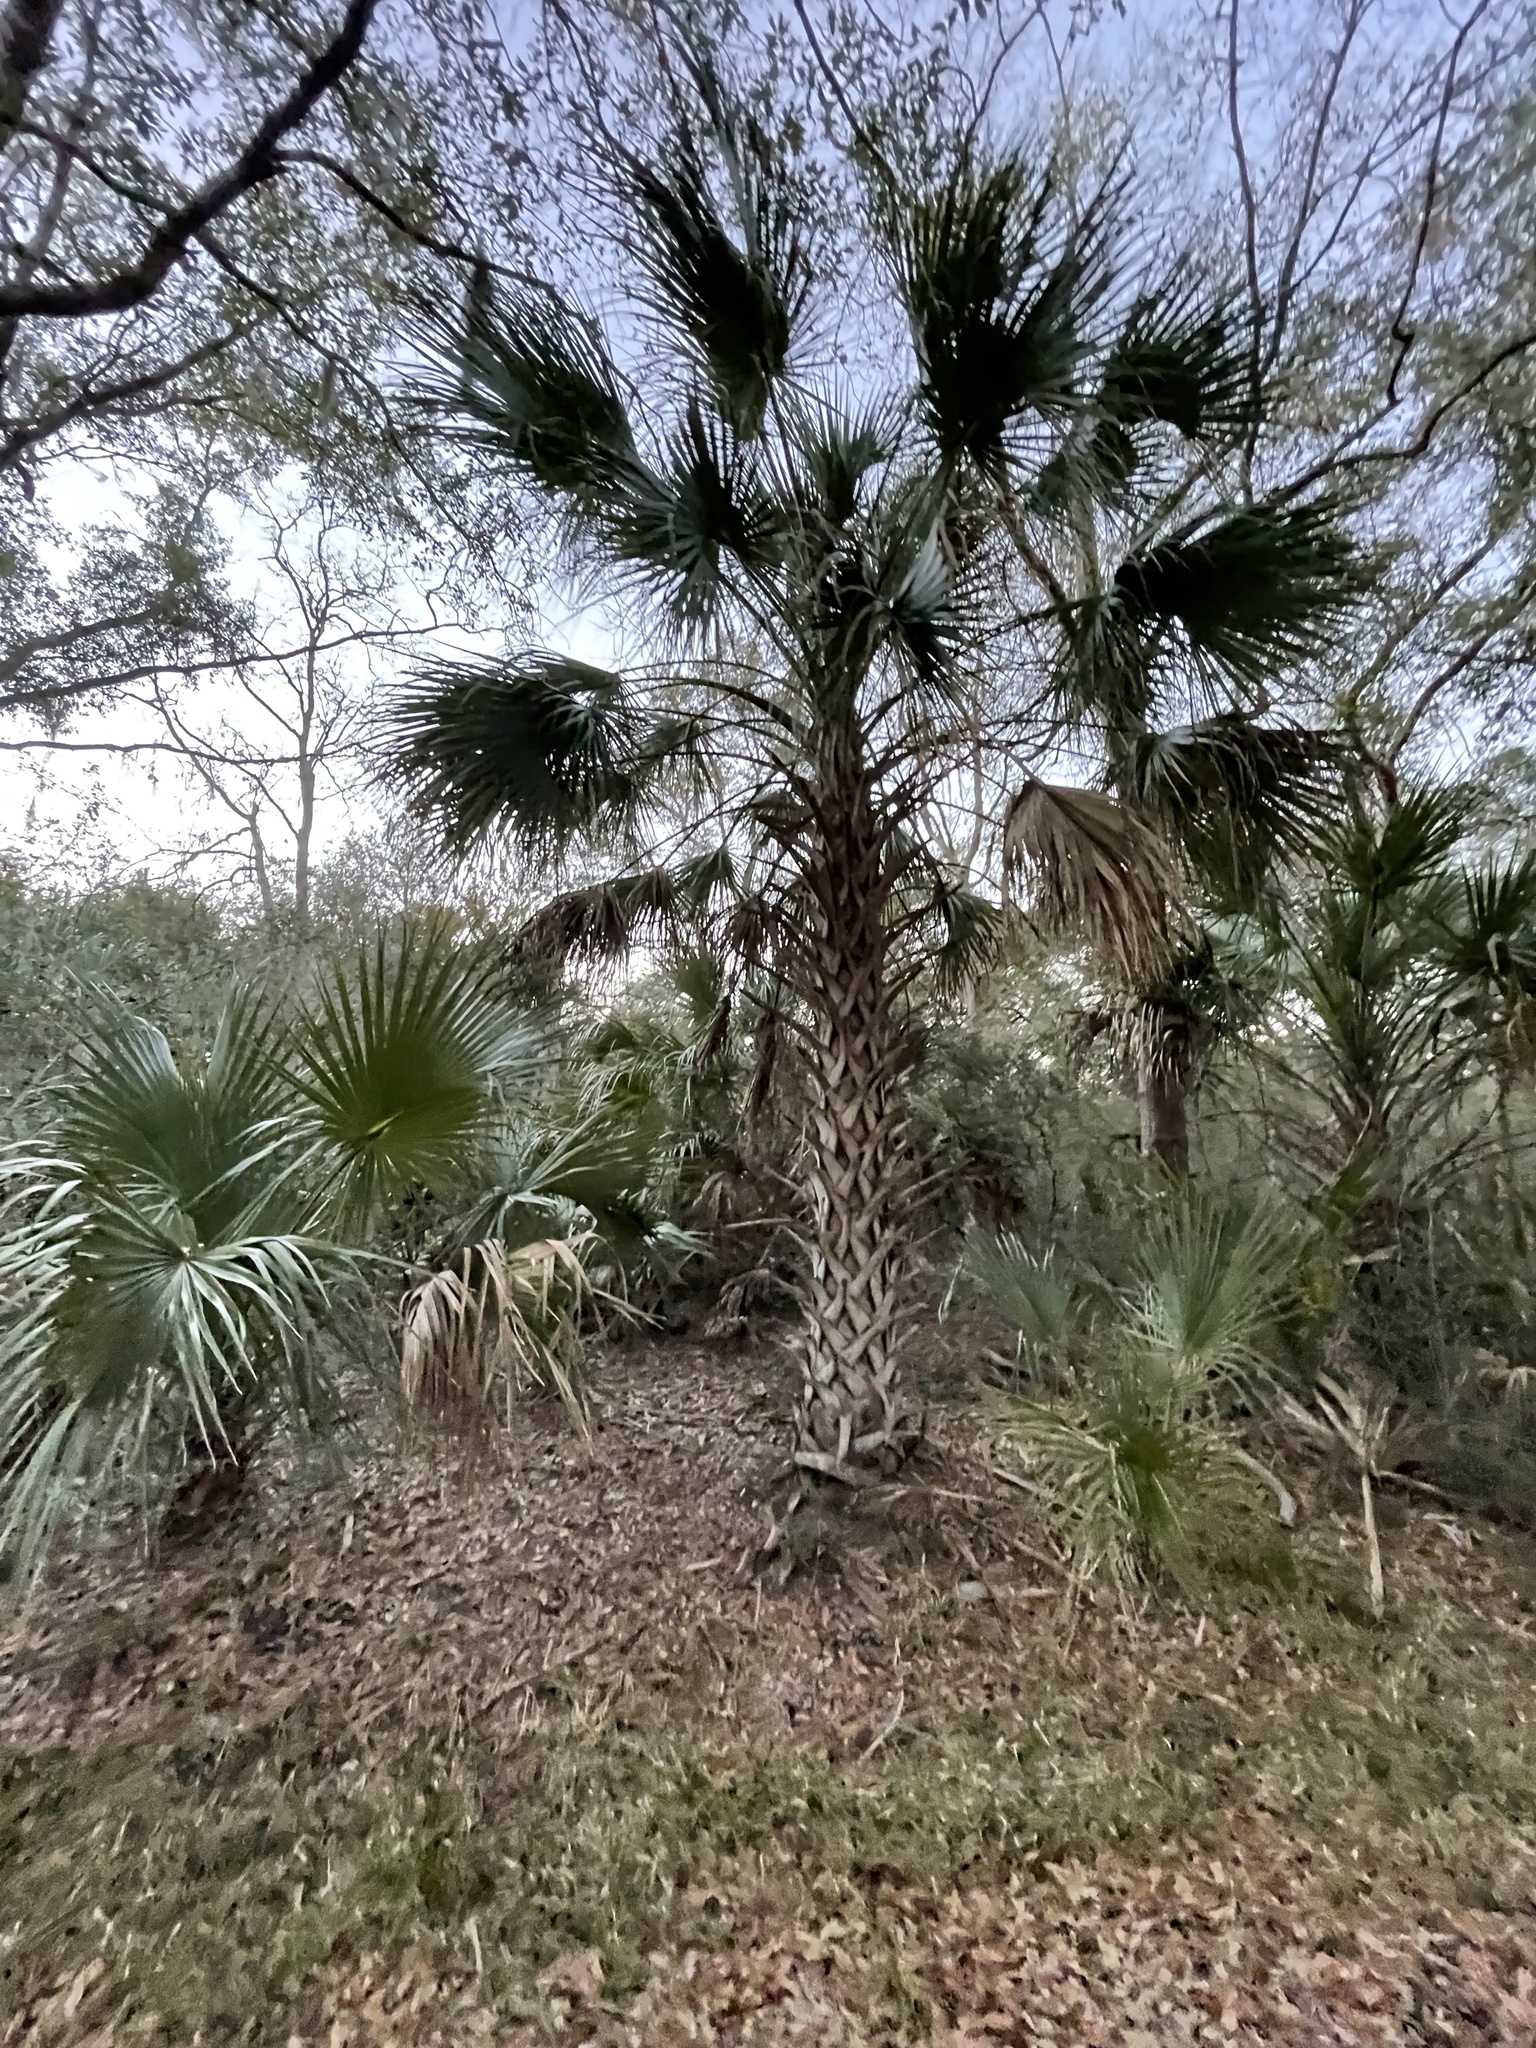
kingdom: Plantae
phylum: Tracheophyta
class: Liliopsida
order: Arecales
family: Arecaceae
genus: Sabal
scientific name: Sabal palmetto
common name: Blue palmetto
